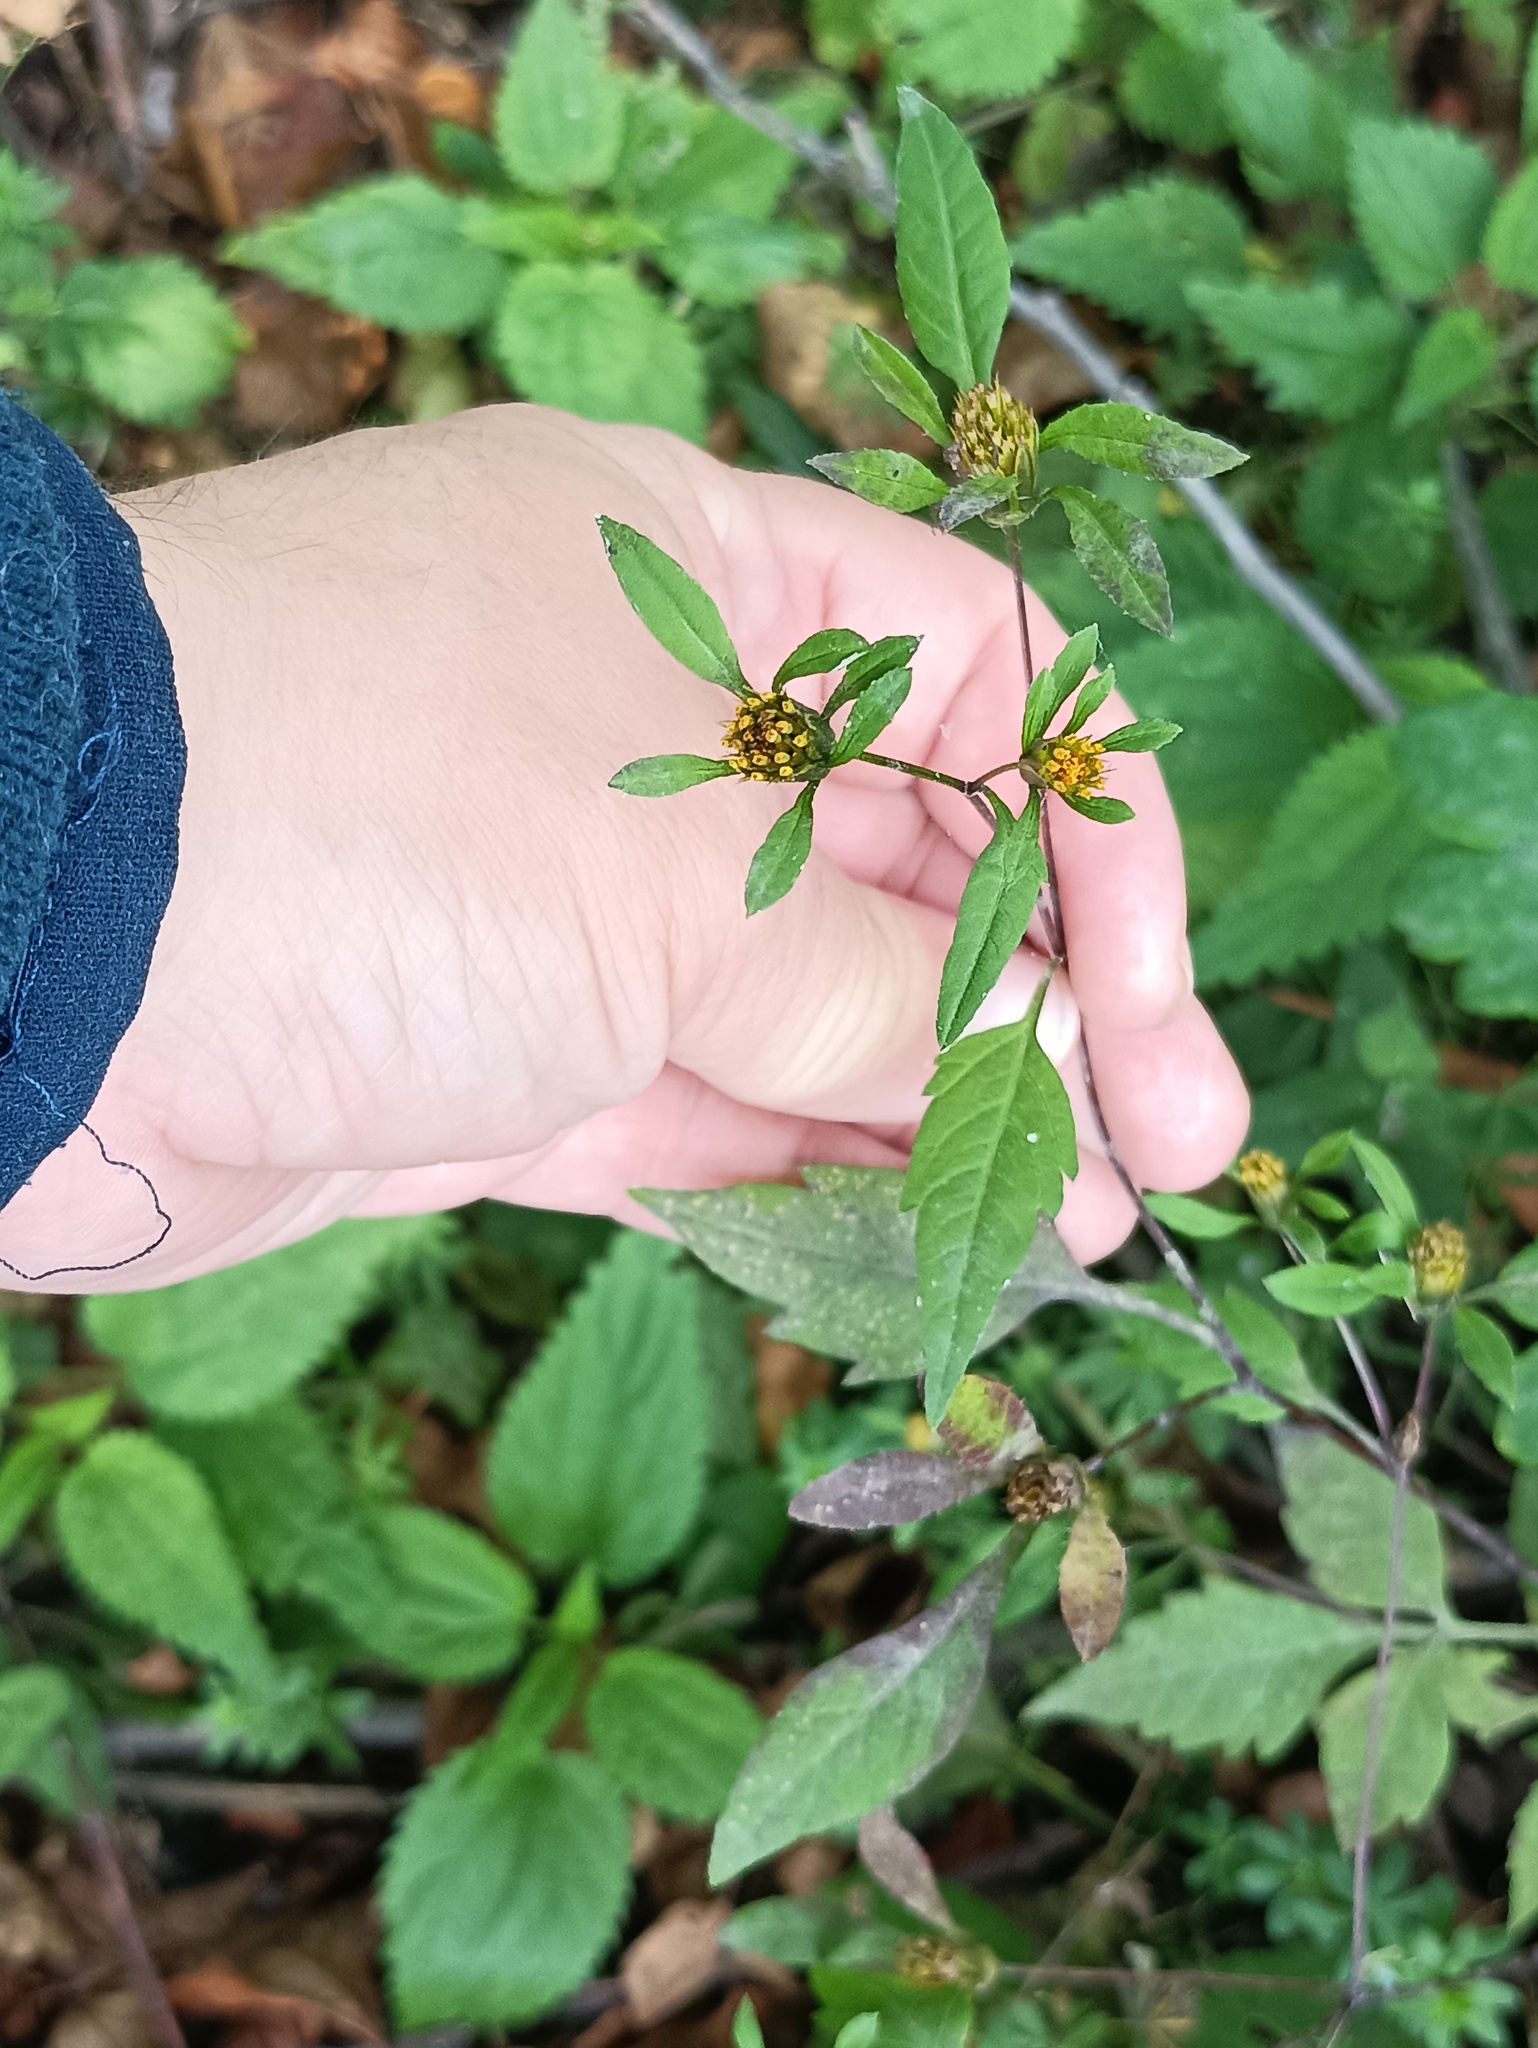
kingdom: Plantae
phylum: Tracheophyta
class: Magnoliopsida
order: Asterales
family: Asteraceae
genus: Bidens
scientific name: Bidens frondosa
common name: Beggarticks
